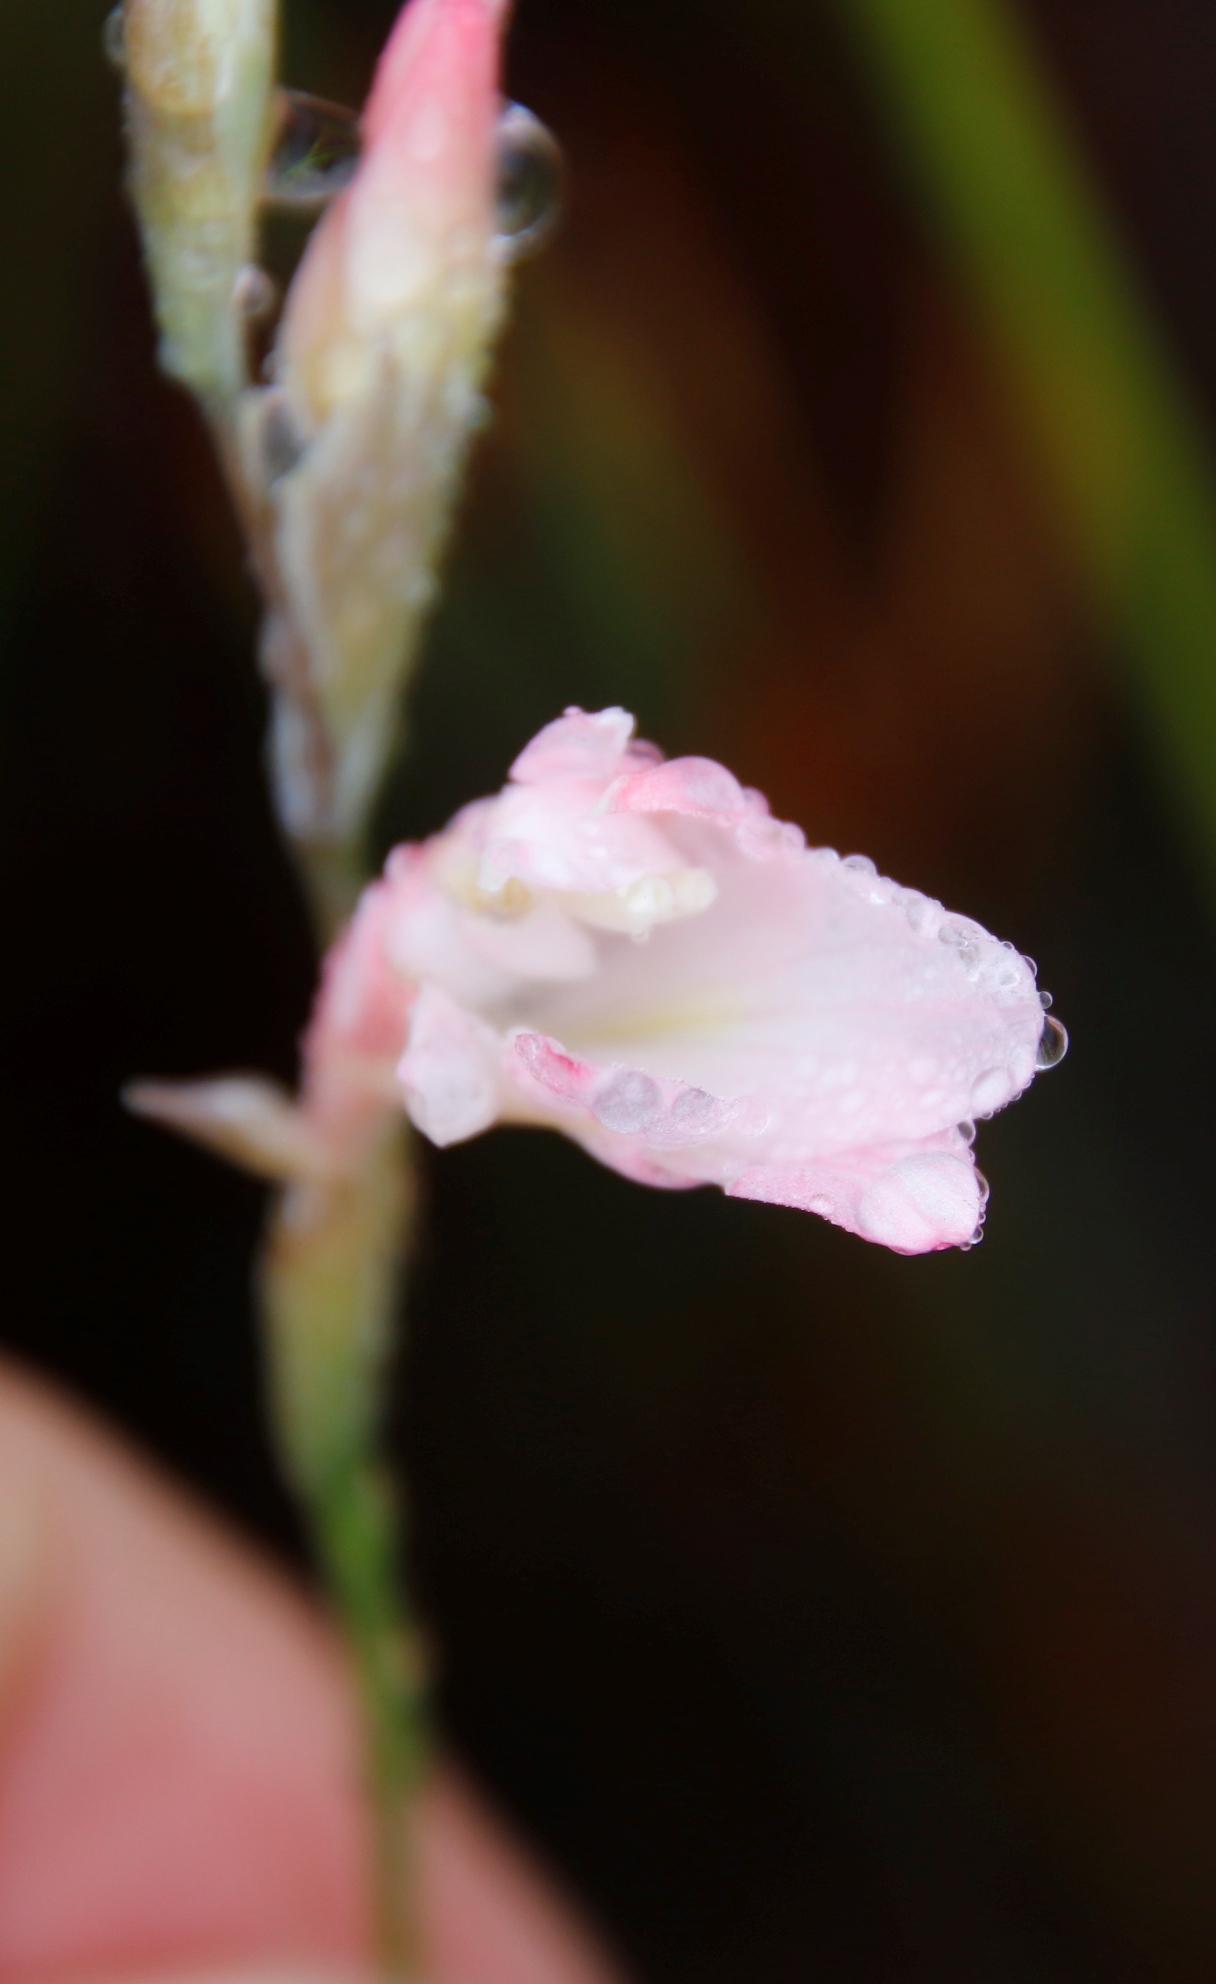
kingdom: Plantae
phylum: Tracheophyta
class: Liliopsida
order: Asparagales
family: Iridaceae
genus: Gladiolus
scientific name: Gladiolus brevifolius
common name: March pypie
